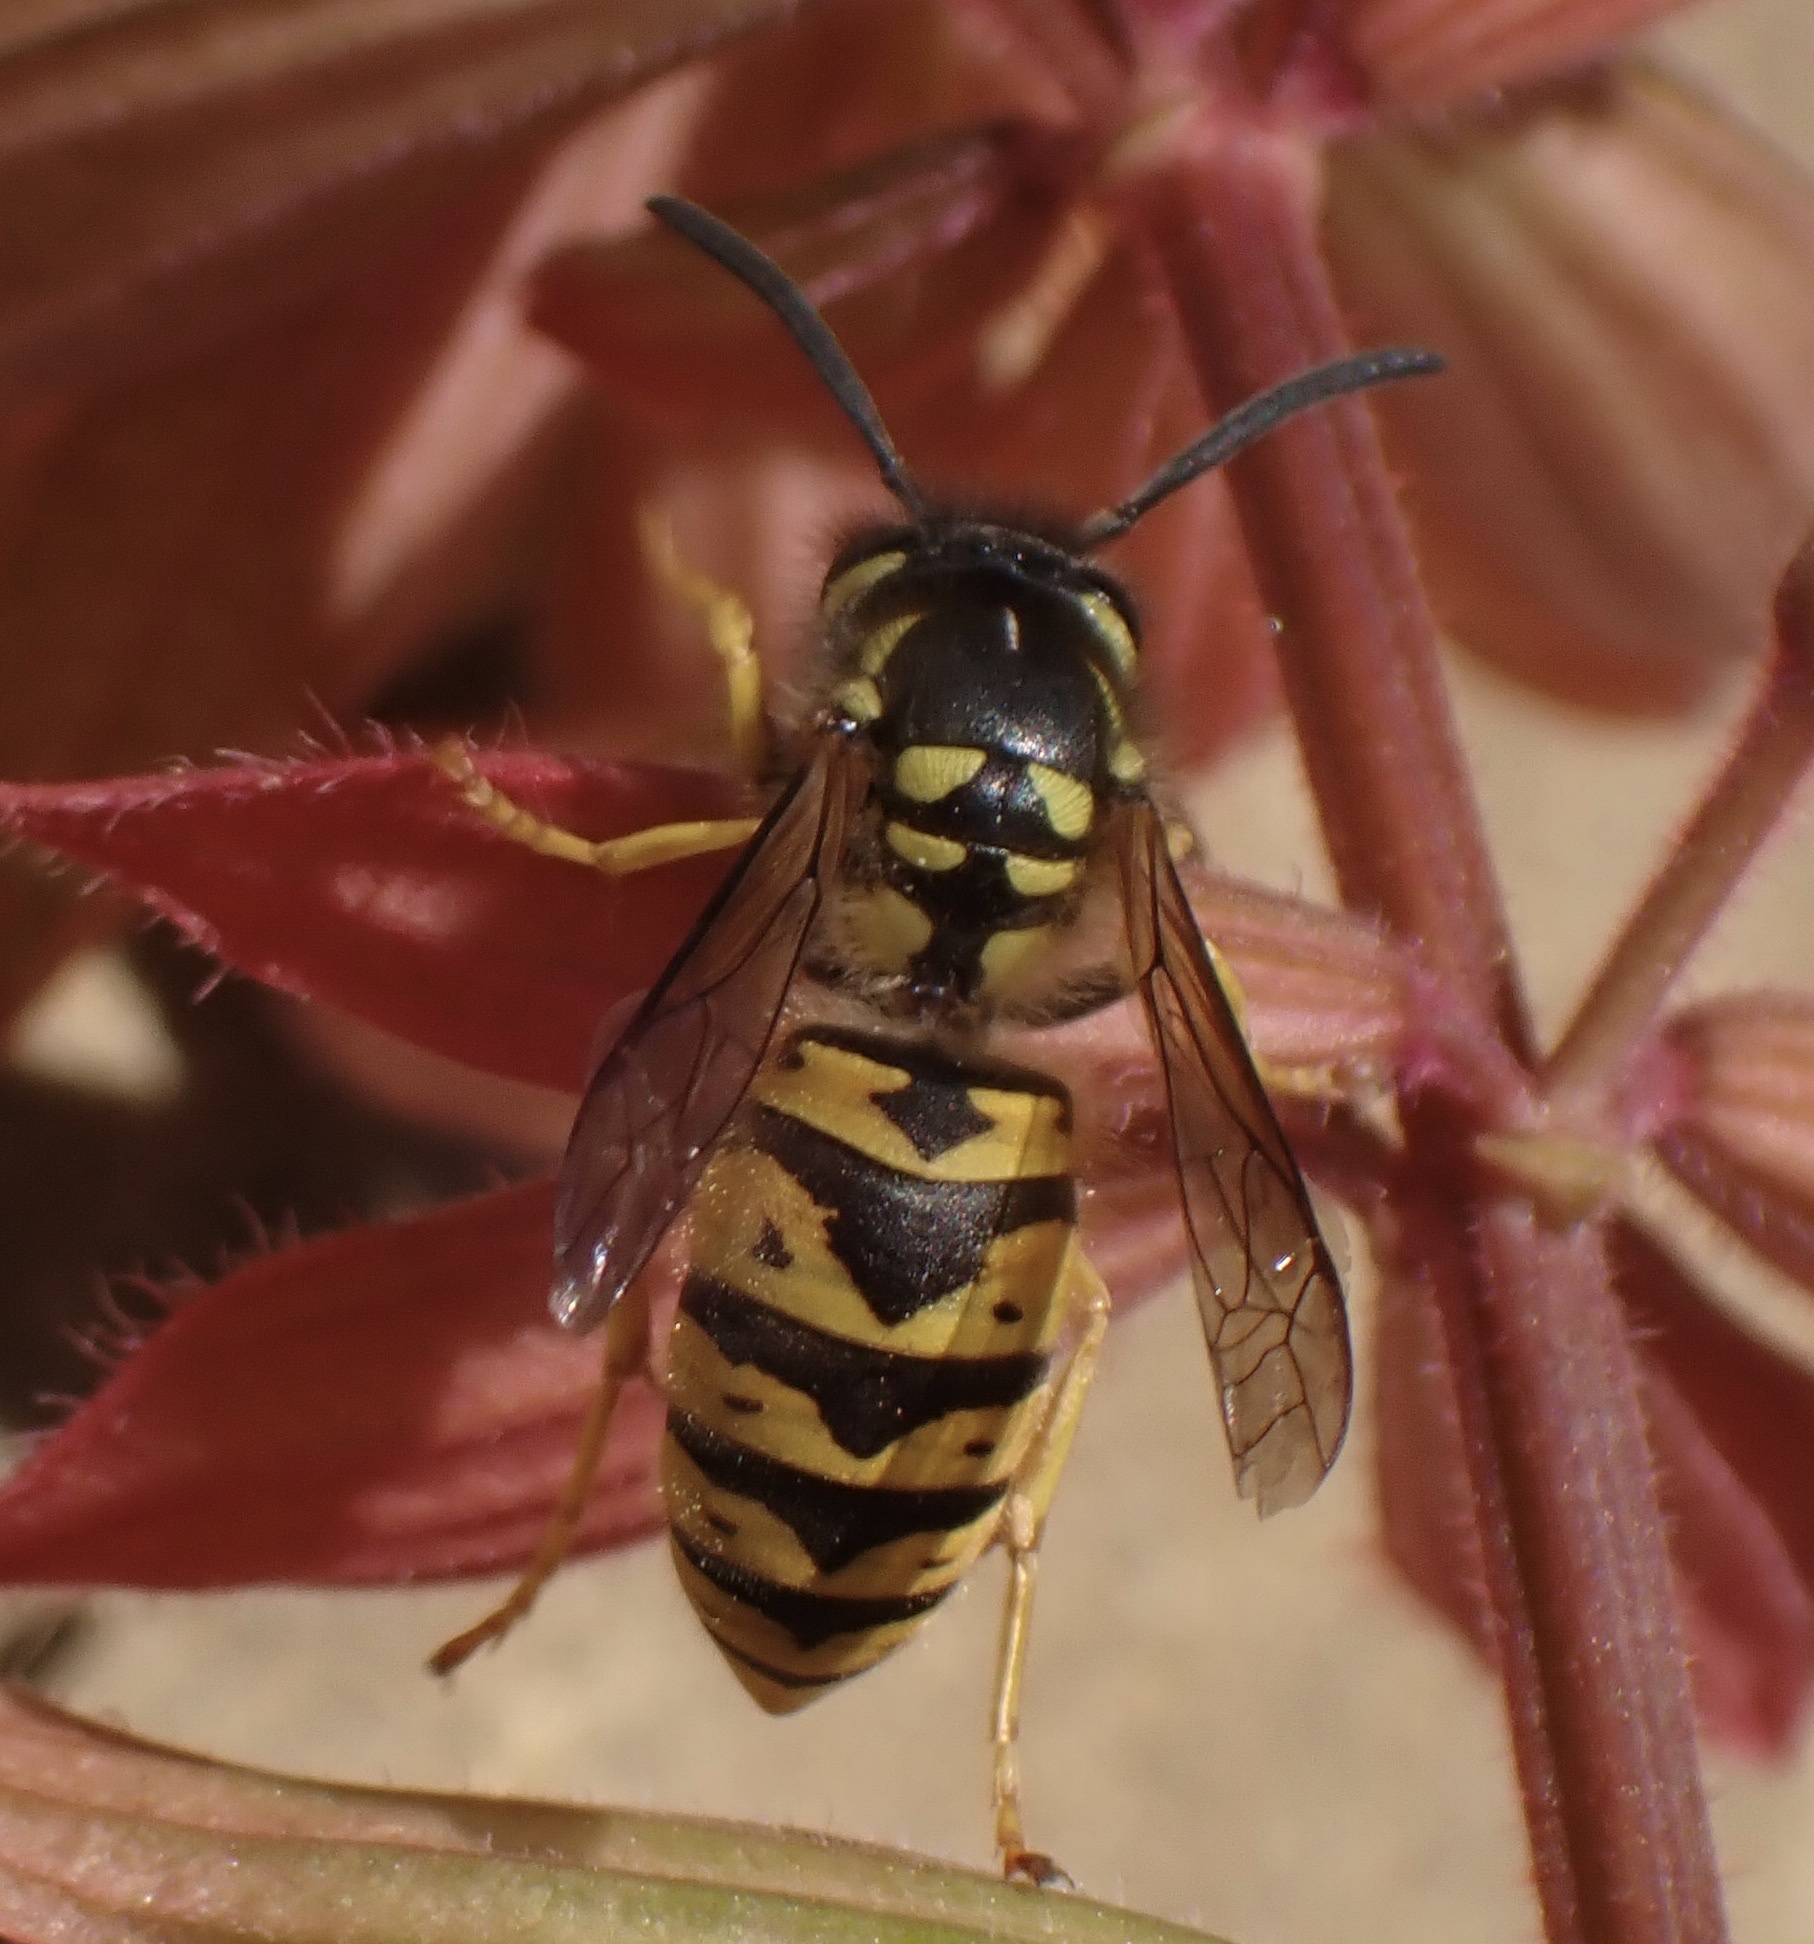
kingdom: Animalia
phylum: Arthropoda
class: Insecta
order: Hymenoptera
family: Vespidae
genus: Vespula
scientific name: Vespula germanica
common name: German wasp
